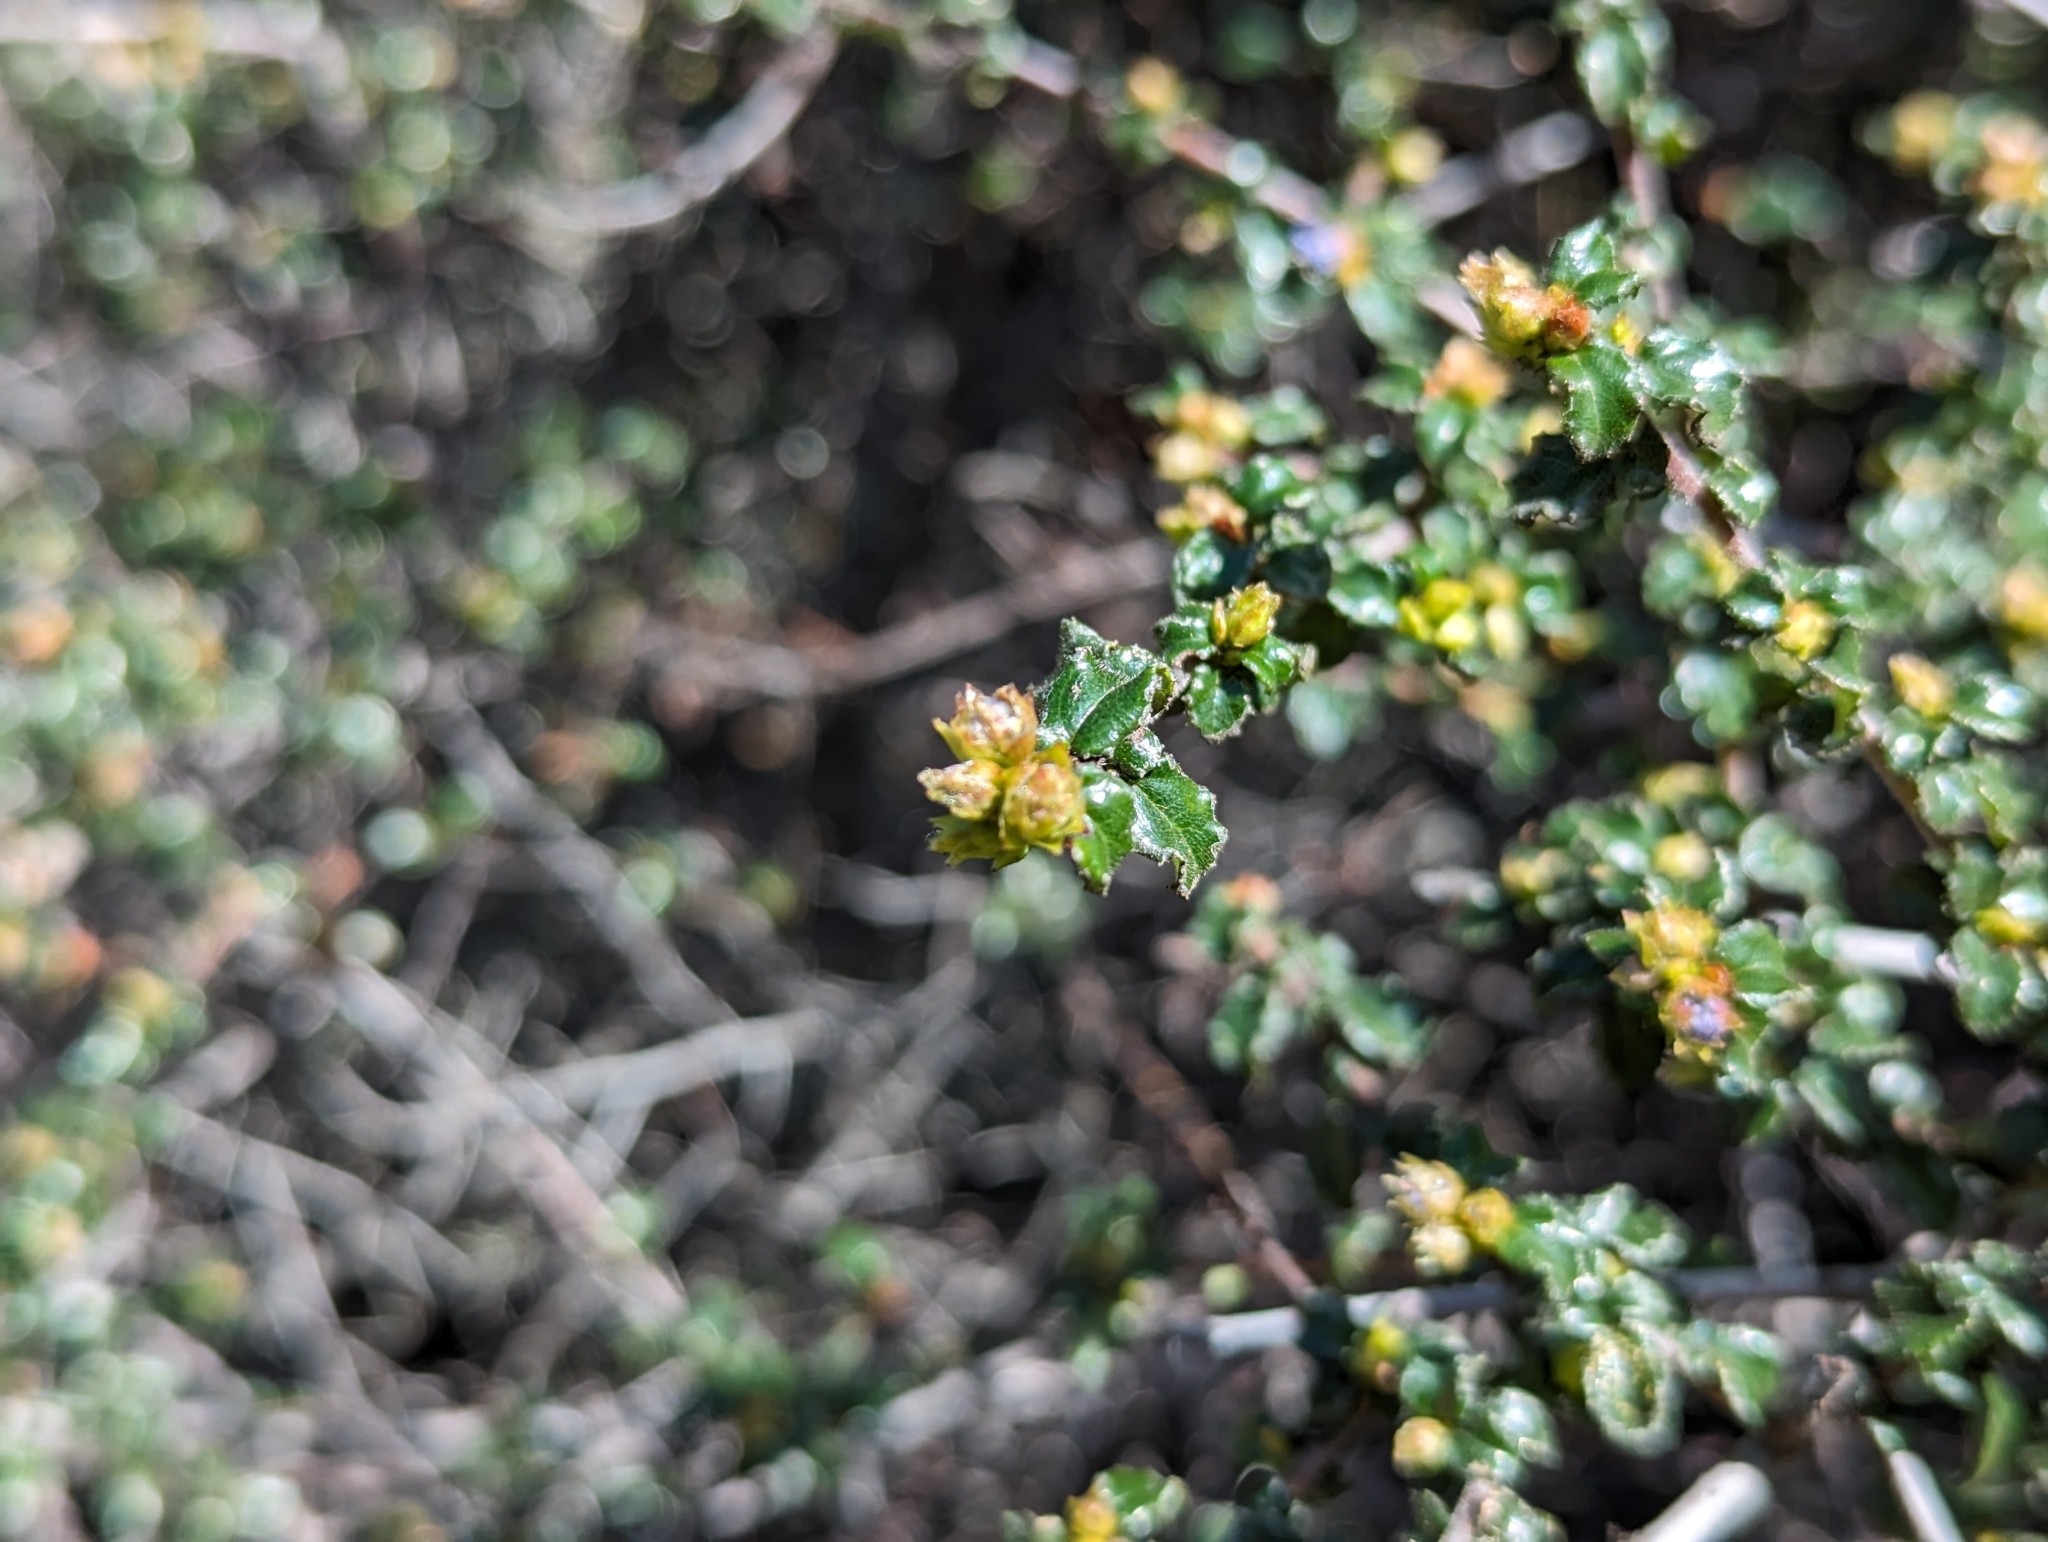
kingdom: Plantae
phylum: Tracheophyta
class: Magnoliopsida
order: Rosales
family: Rhamnaceae
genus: Ceanothus
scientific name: Ceanothus foliosus
